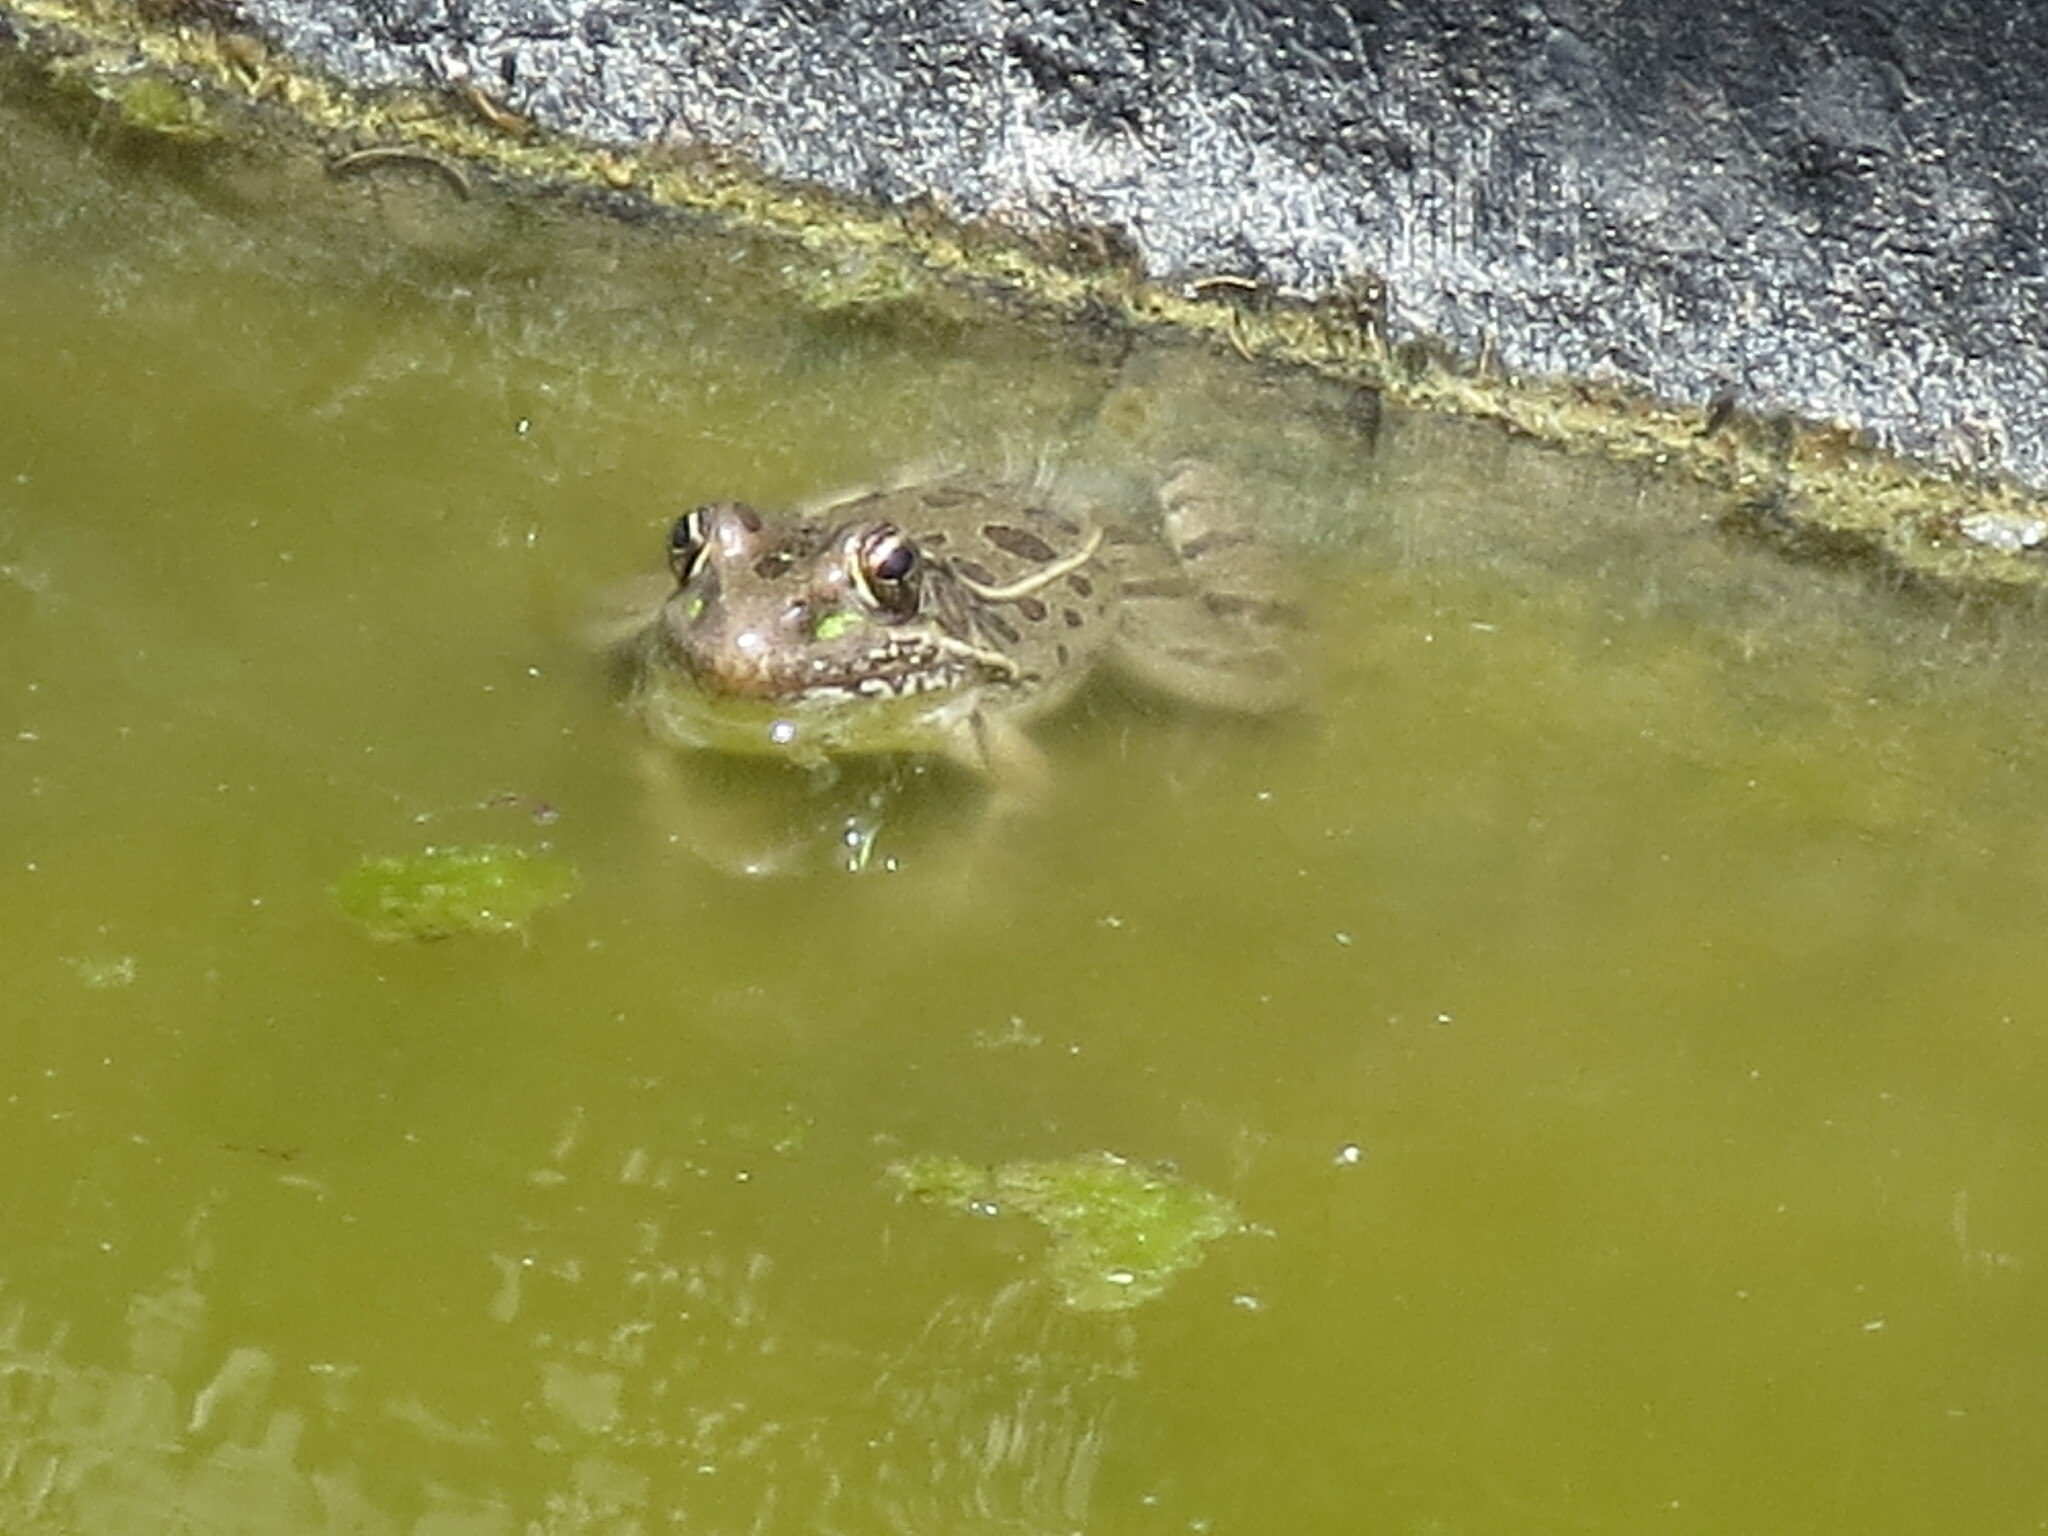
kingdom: Animalia
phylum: Chordata
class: Amphibia
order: Anura
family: Ranidae
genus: Lithobates
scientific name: Lithobates berlandieri
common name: Rio grande leopard frog
